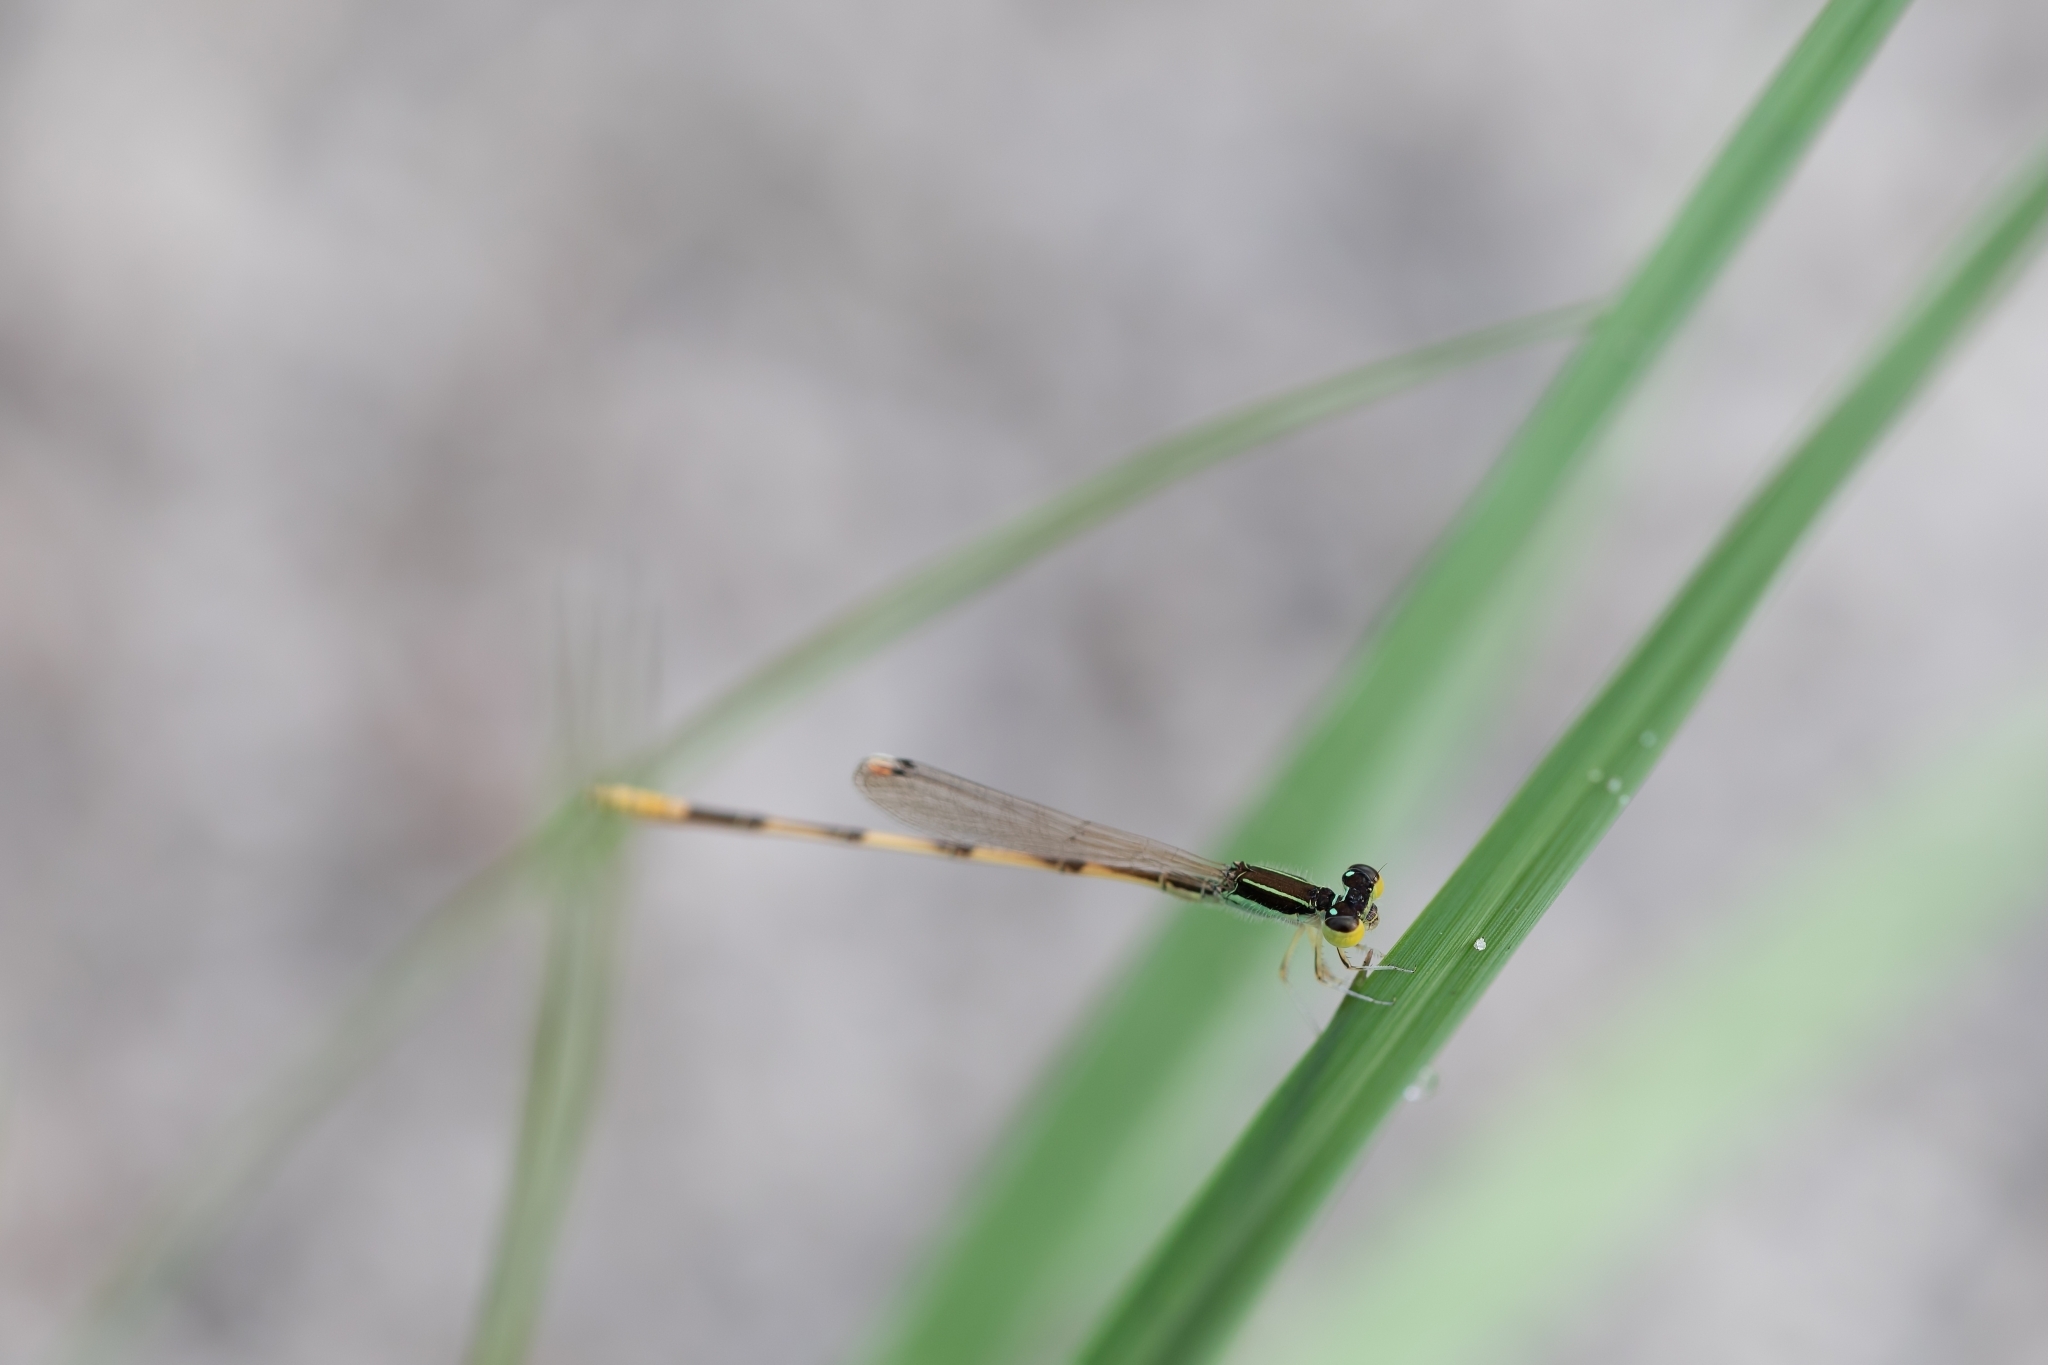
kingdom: Animalia
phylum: Arthropoda
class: Insecta
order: Odonata
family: Coenagrionidae
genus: Ischnura
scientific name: Ischnura hastata
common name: Citrine forktail
